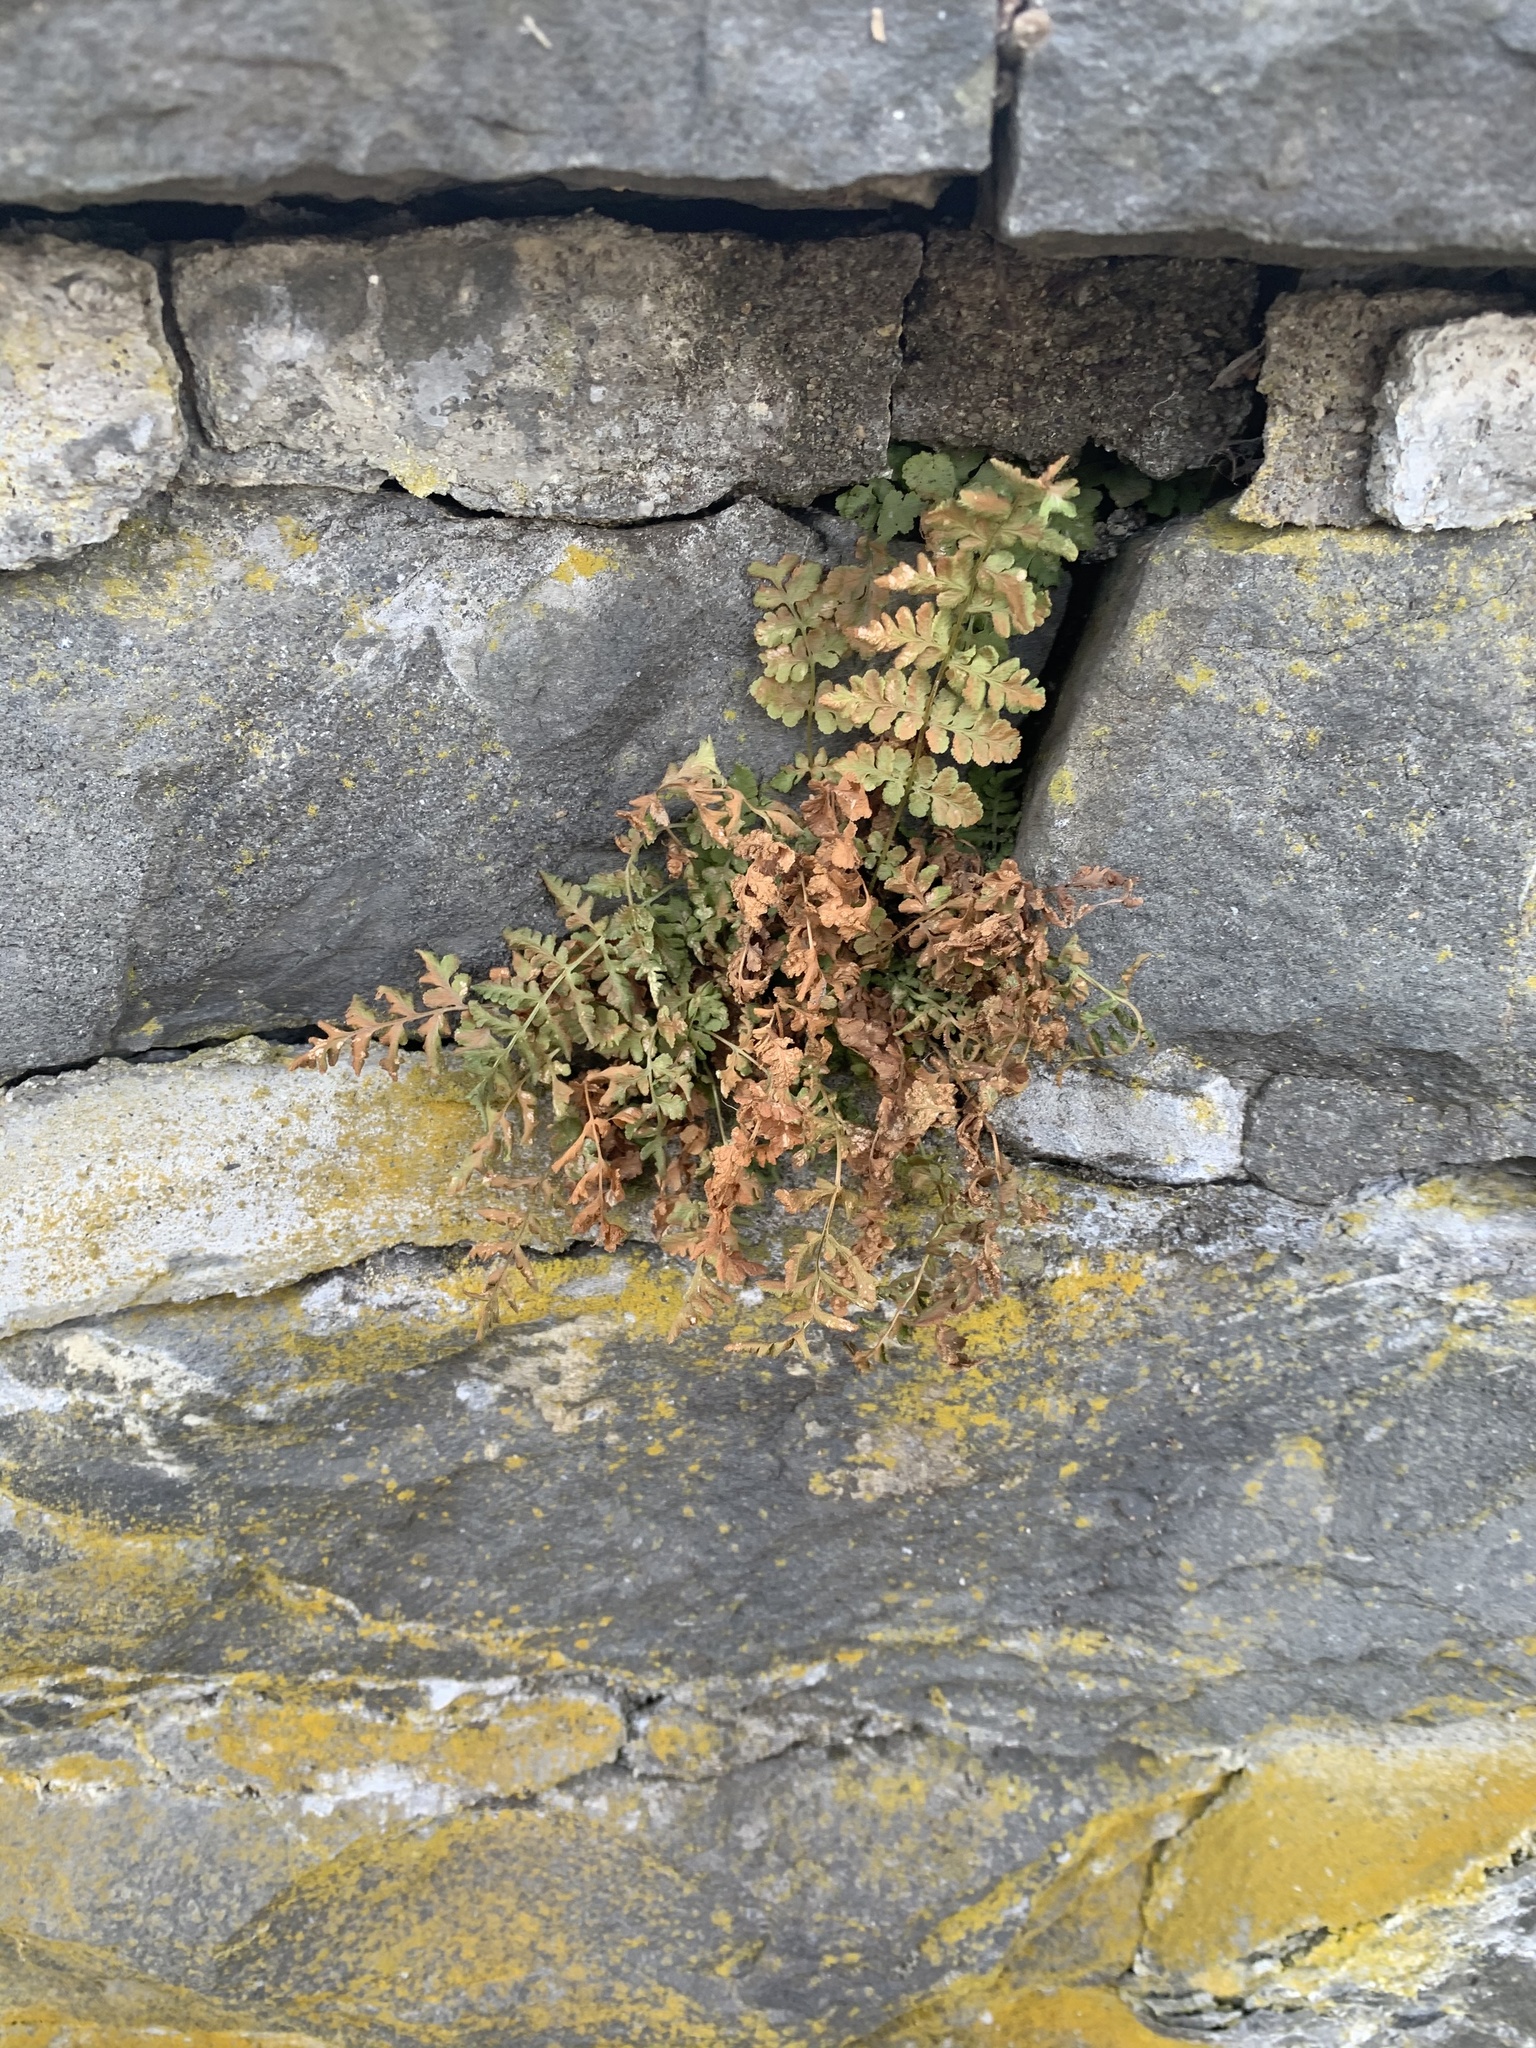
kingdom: Plantae
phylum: Tracheophyta
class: Polypodiopsida
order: Polypodiales
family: Woodsiaceae
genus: Physematium
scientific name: Physematium obtusum
